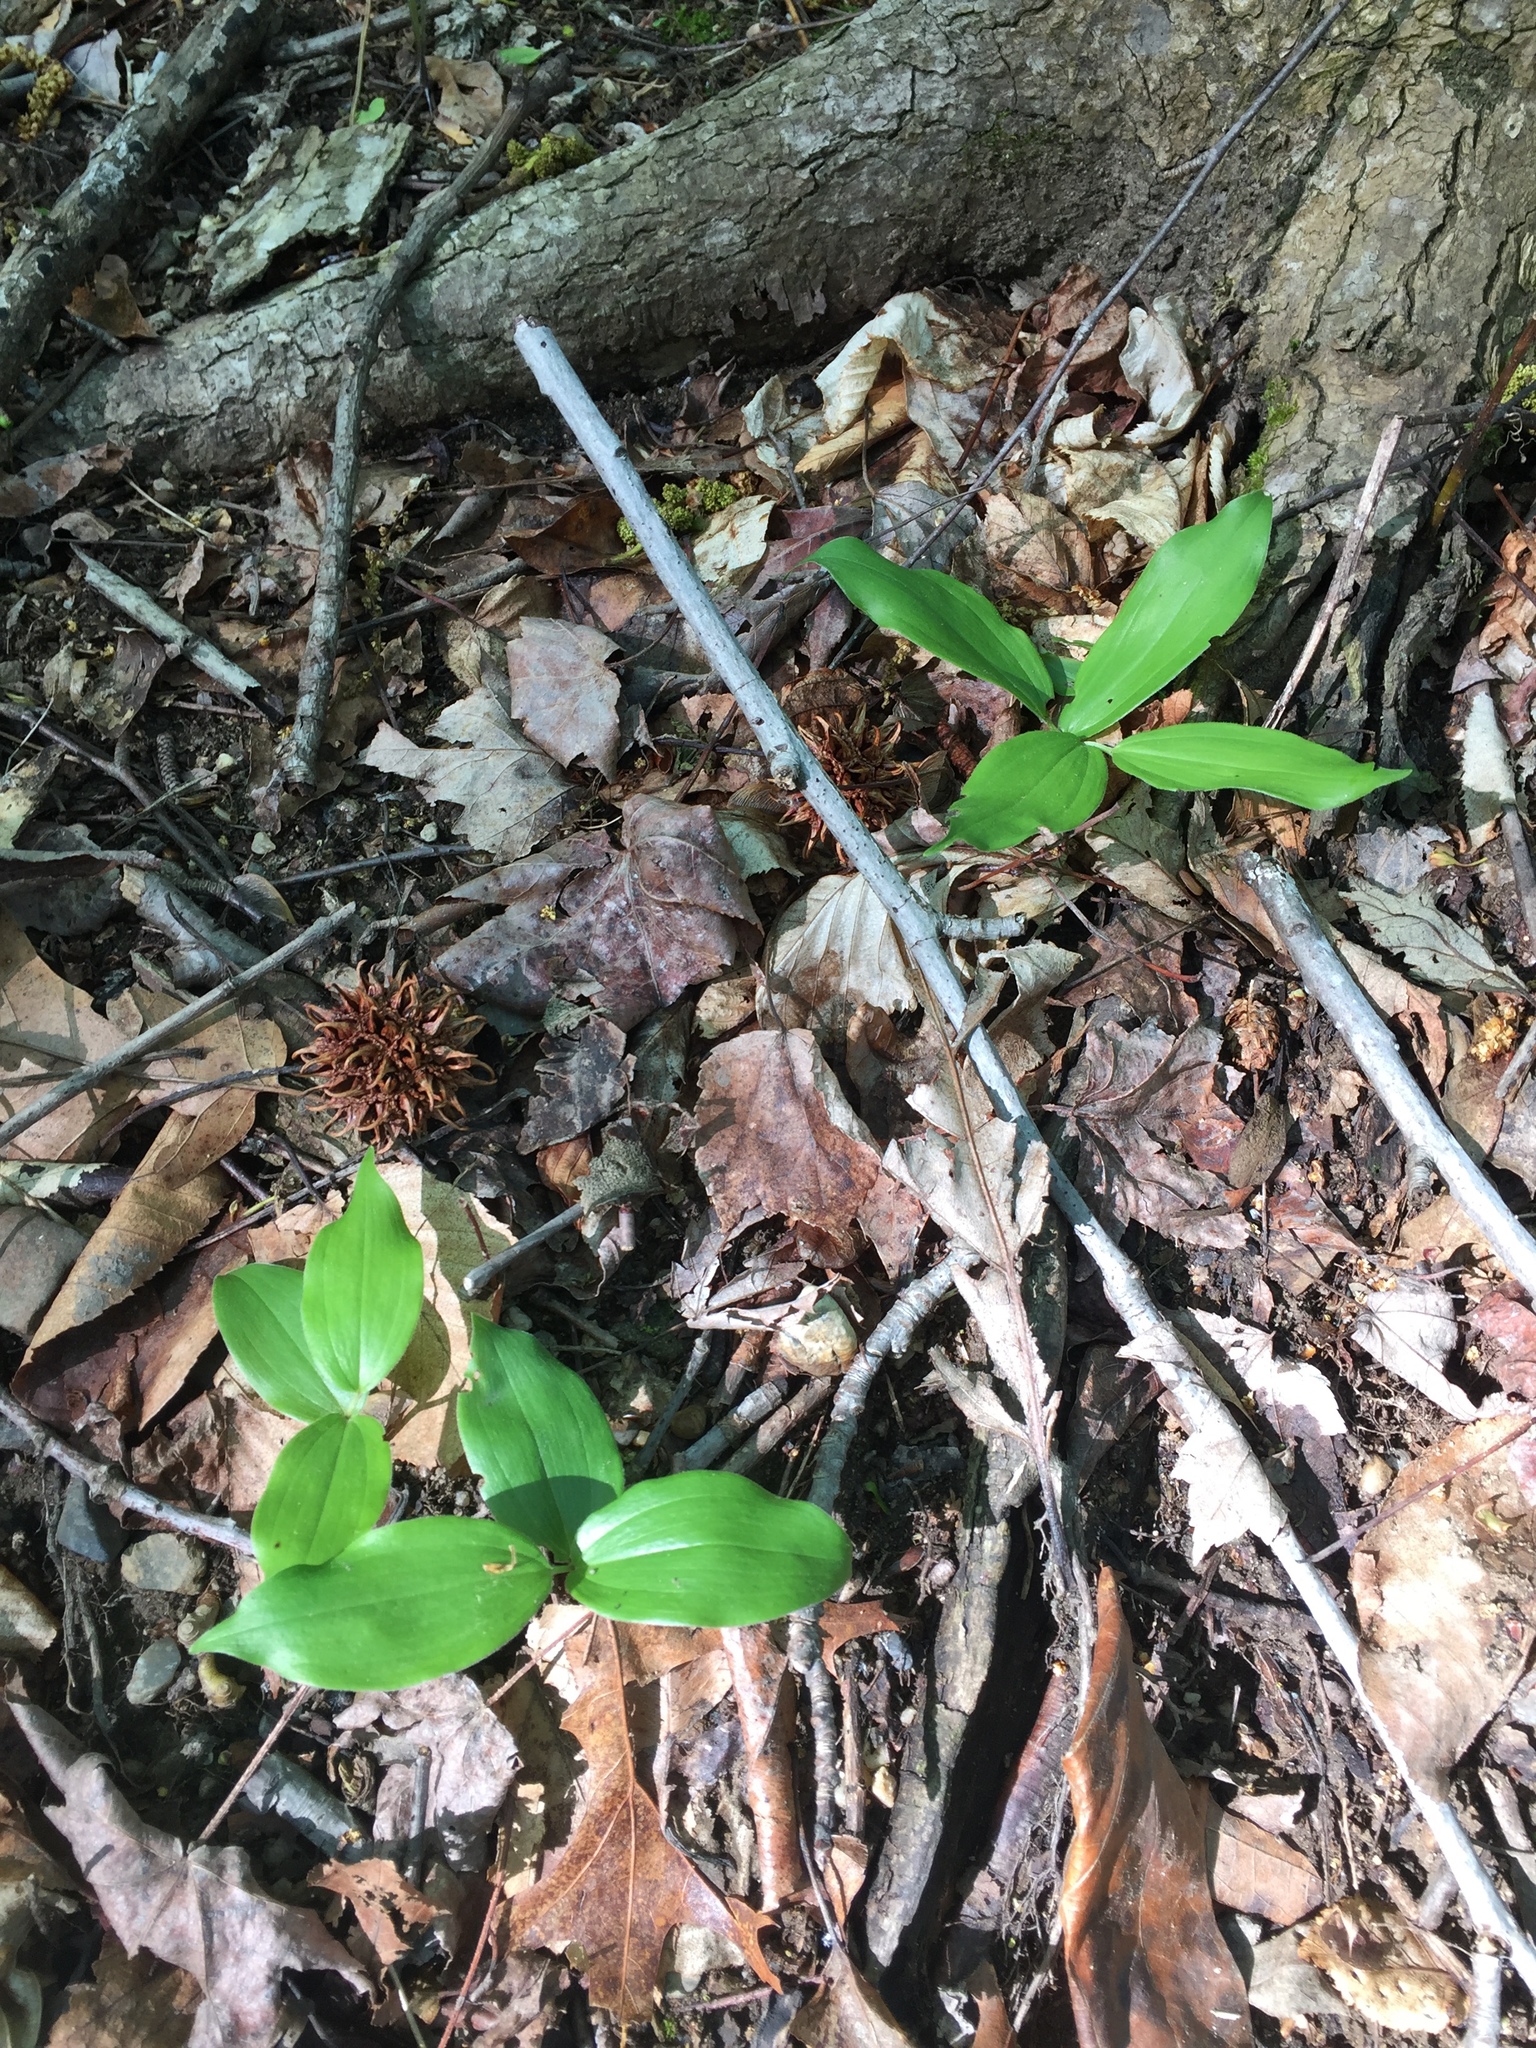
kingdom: Plantae
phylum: Tracheophyta
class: Liliopsida
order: Asparagales
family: Asparagaceae
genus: Maianthemum
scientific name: Maianthemum racemosum
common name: False spikenard
